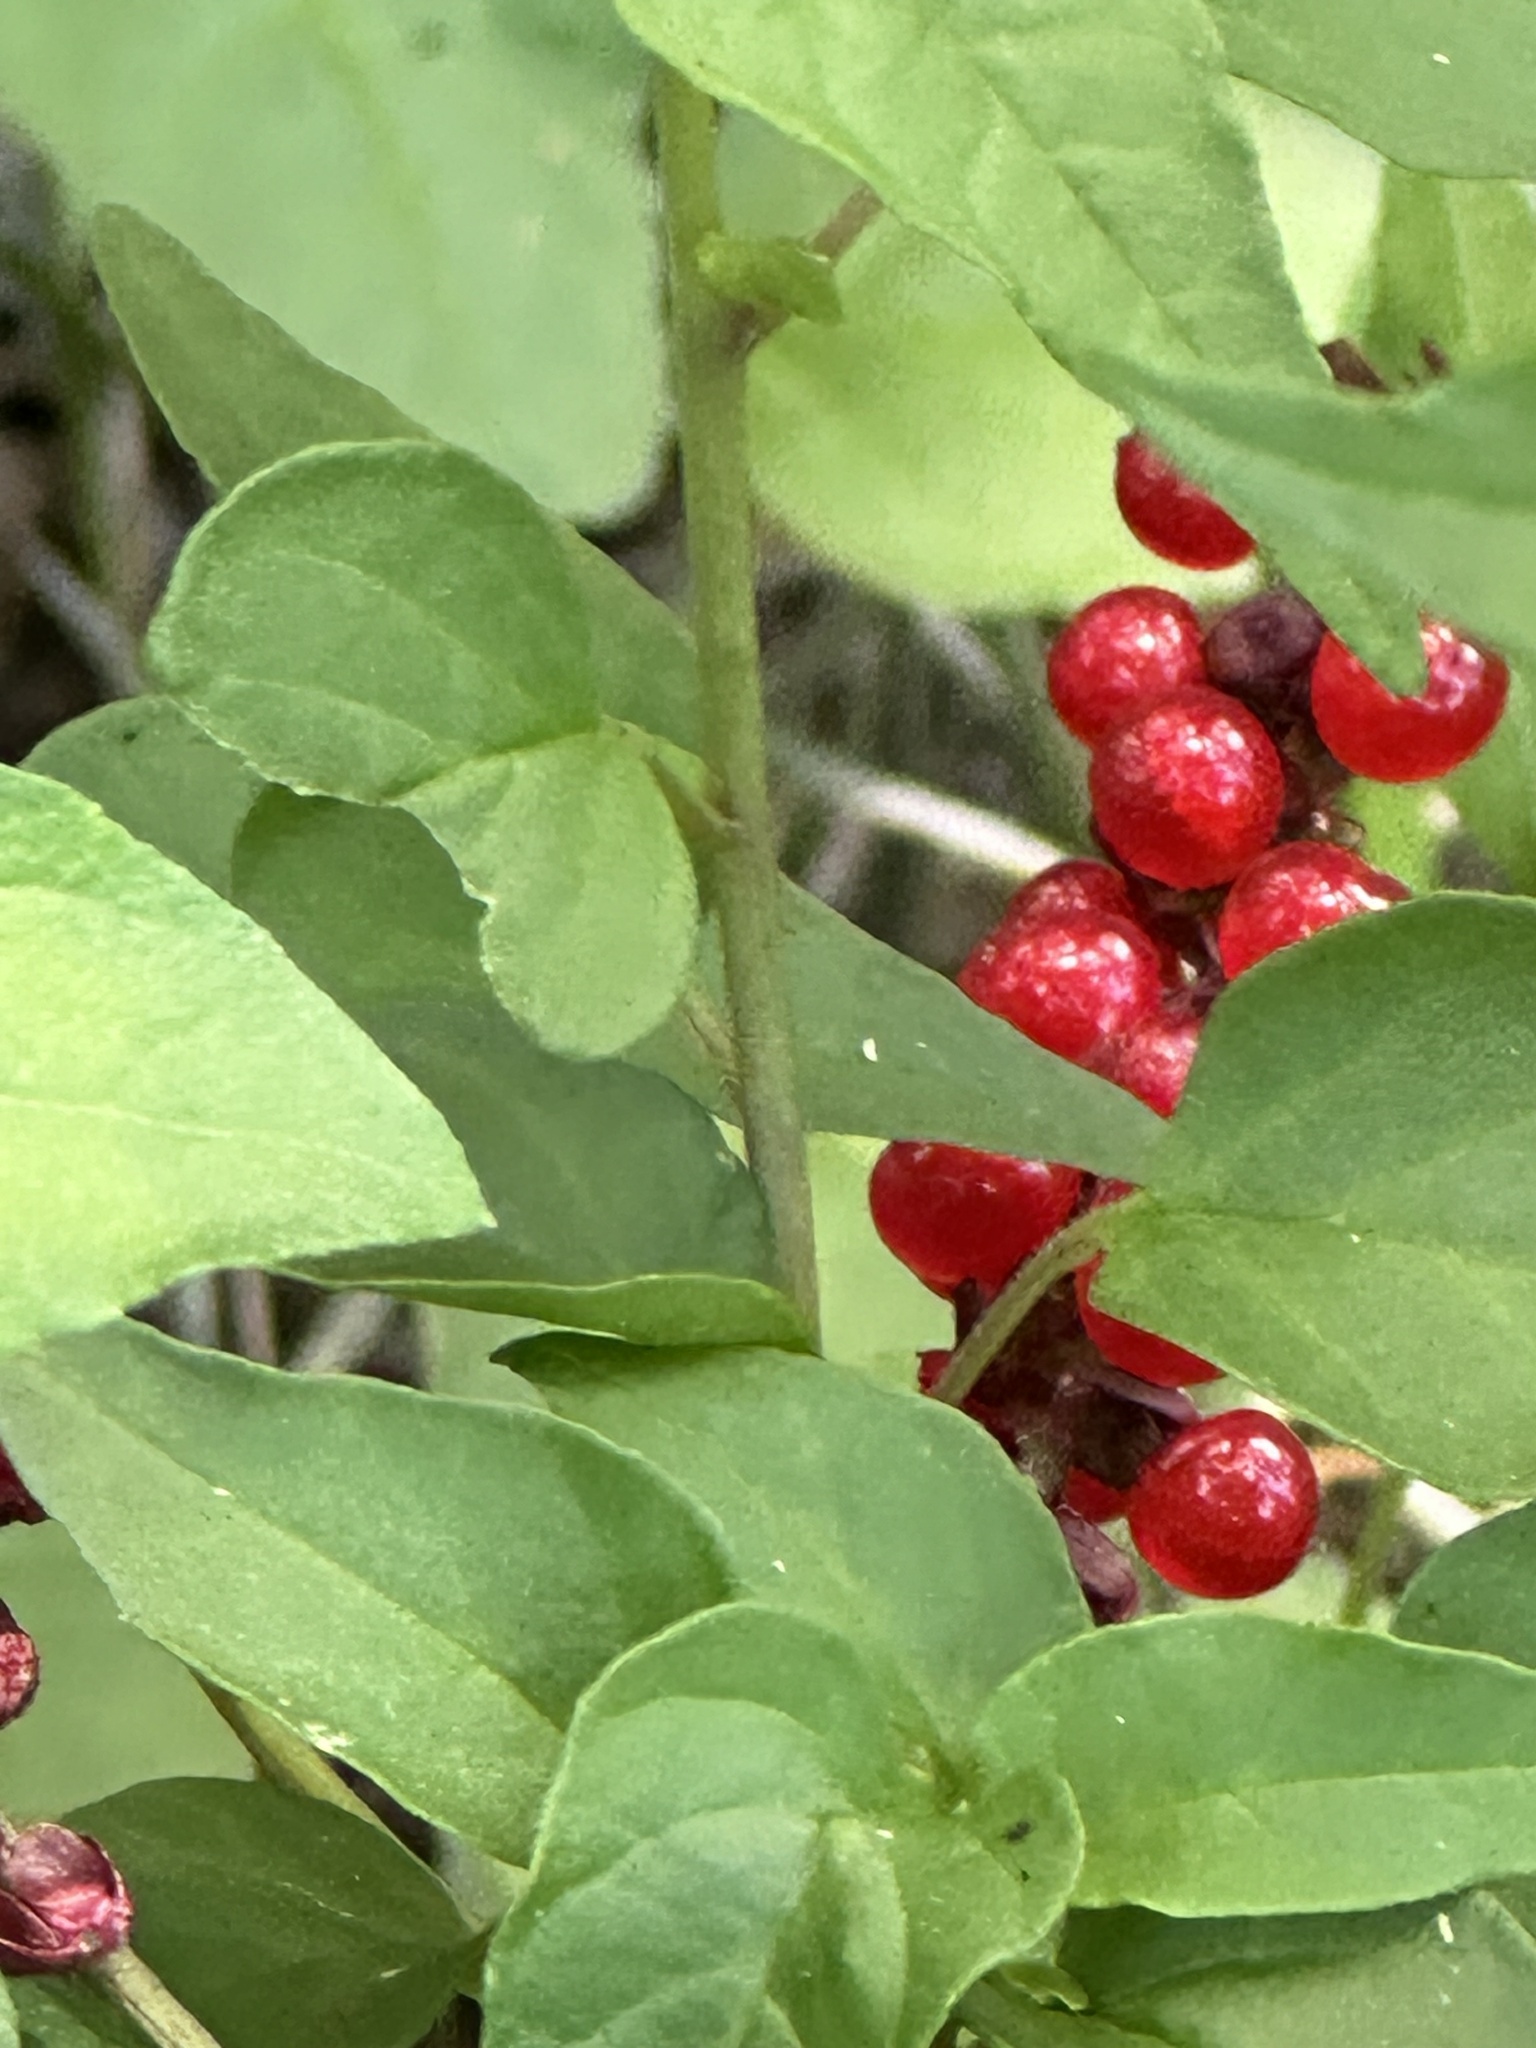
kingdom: Plantae
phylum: Tracheophyta
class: Magnoliopsida
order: Caryophyllales
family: Phytolaccaceae
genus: Rivina
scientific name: Rivina humilis
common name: Rougeplant
